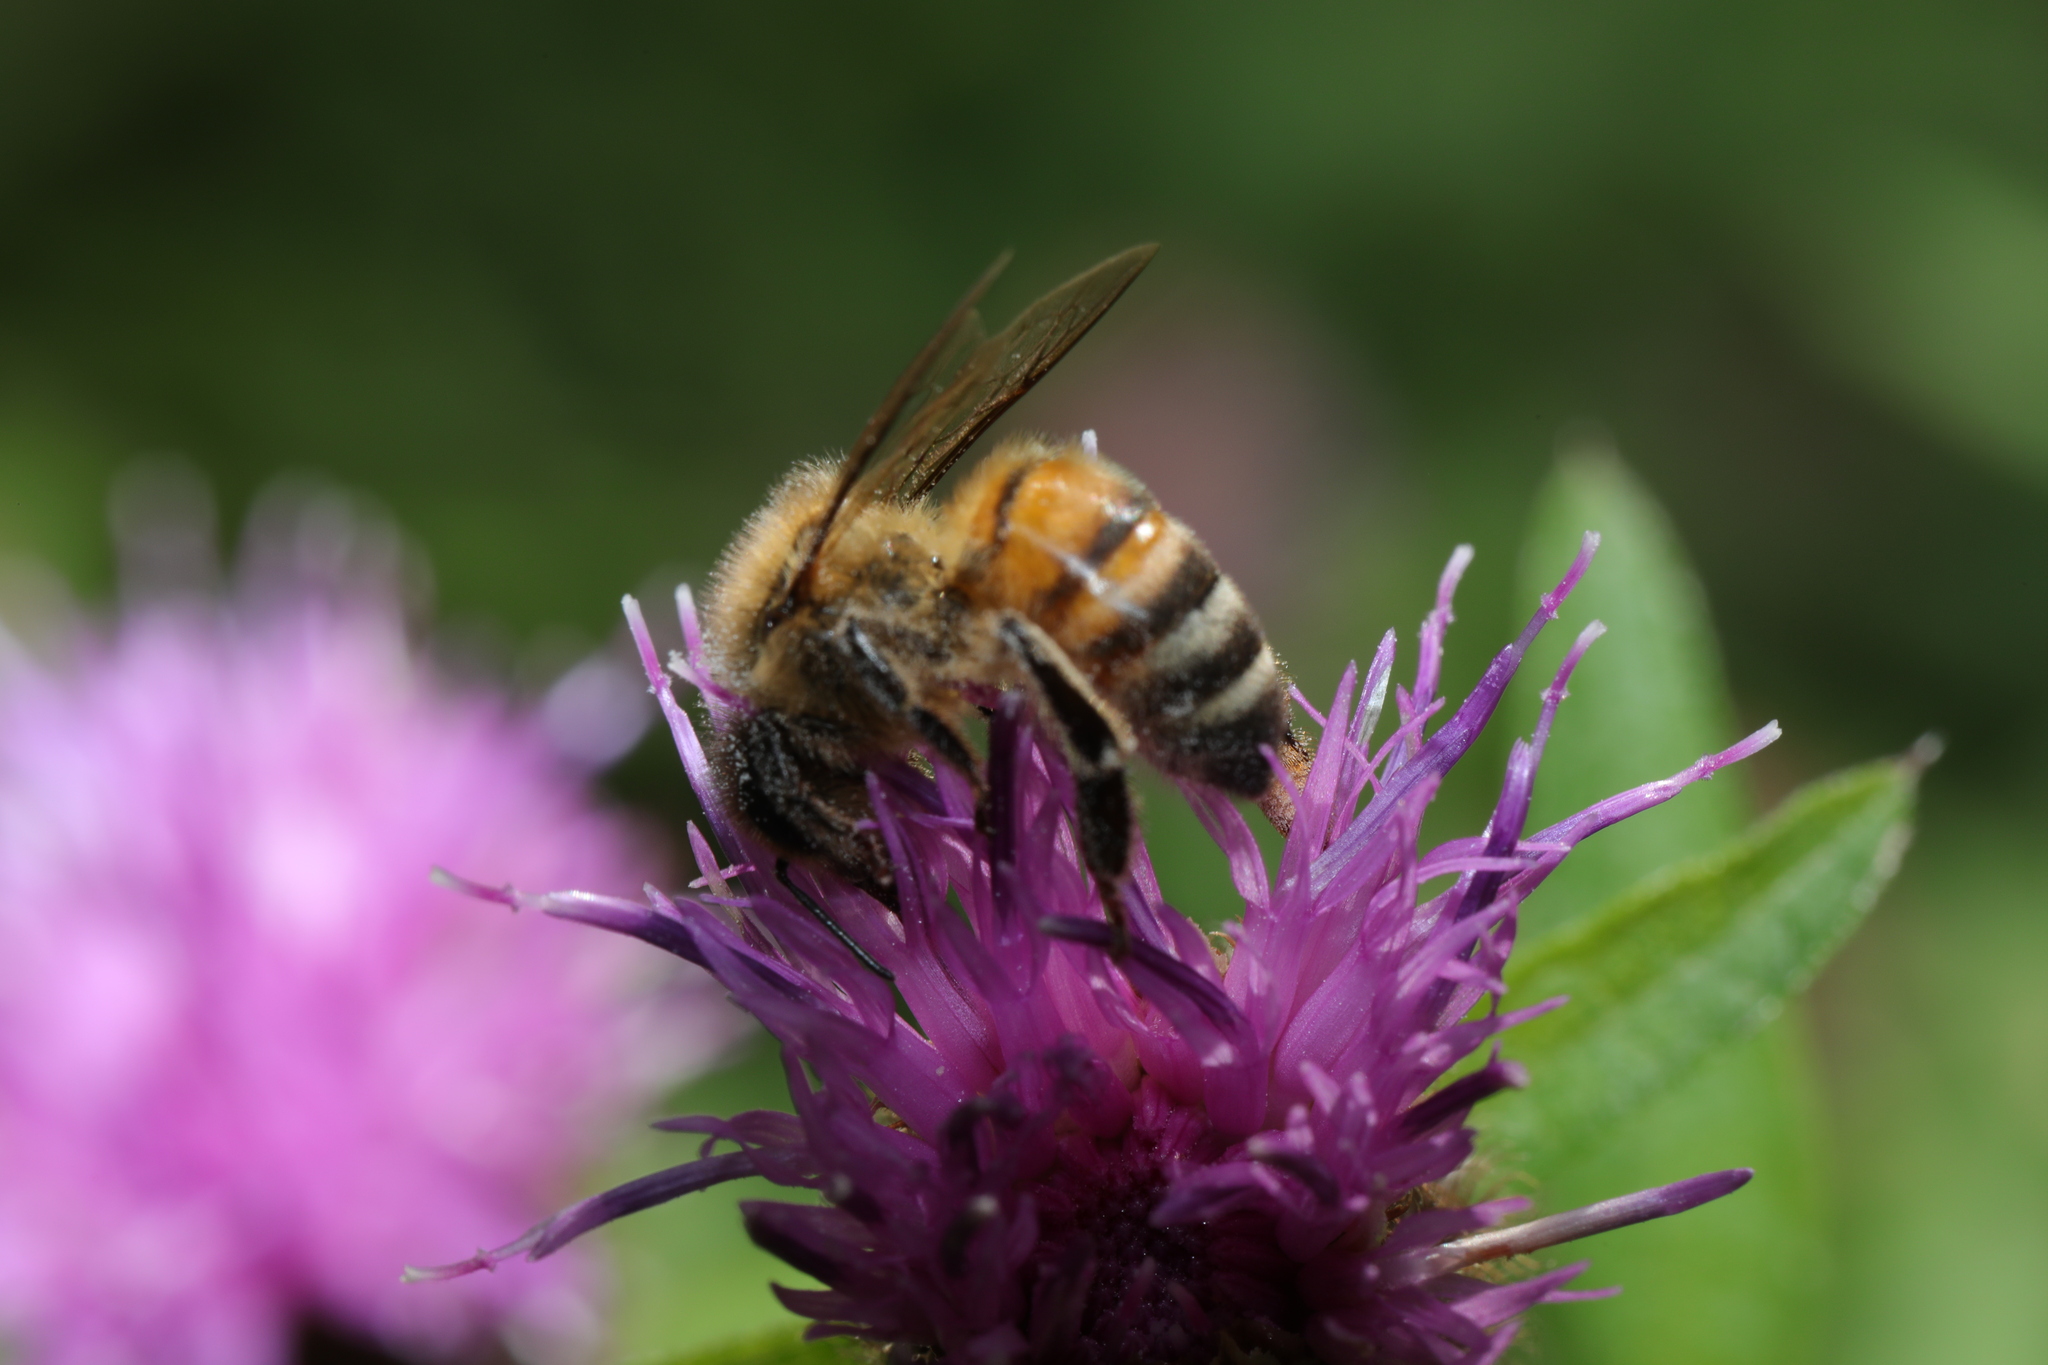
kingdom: Animalia
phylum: Arthropoda
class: Insecta
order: Hymenoptera
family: Apidae
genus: Apis
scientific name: Apis mellifera
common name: Honey bee
